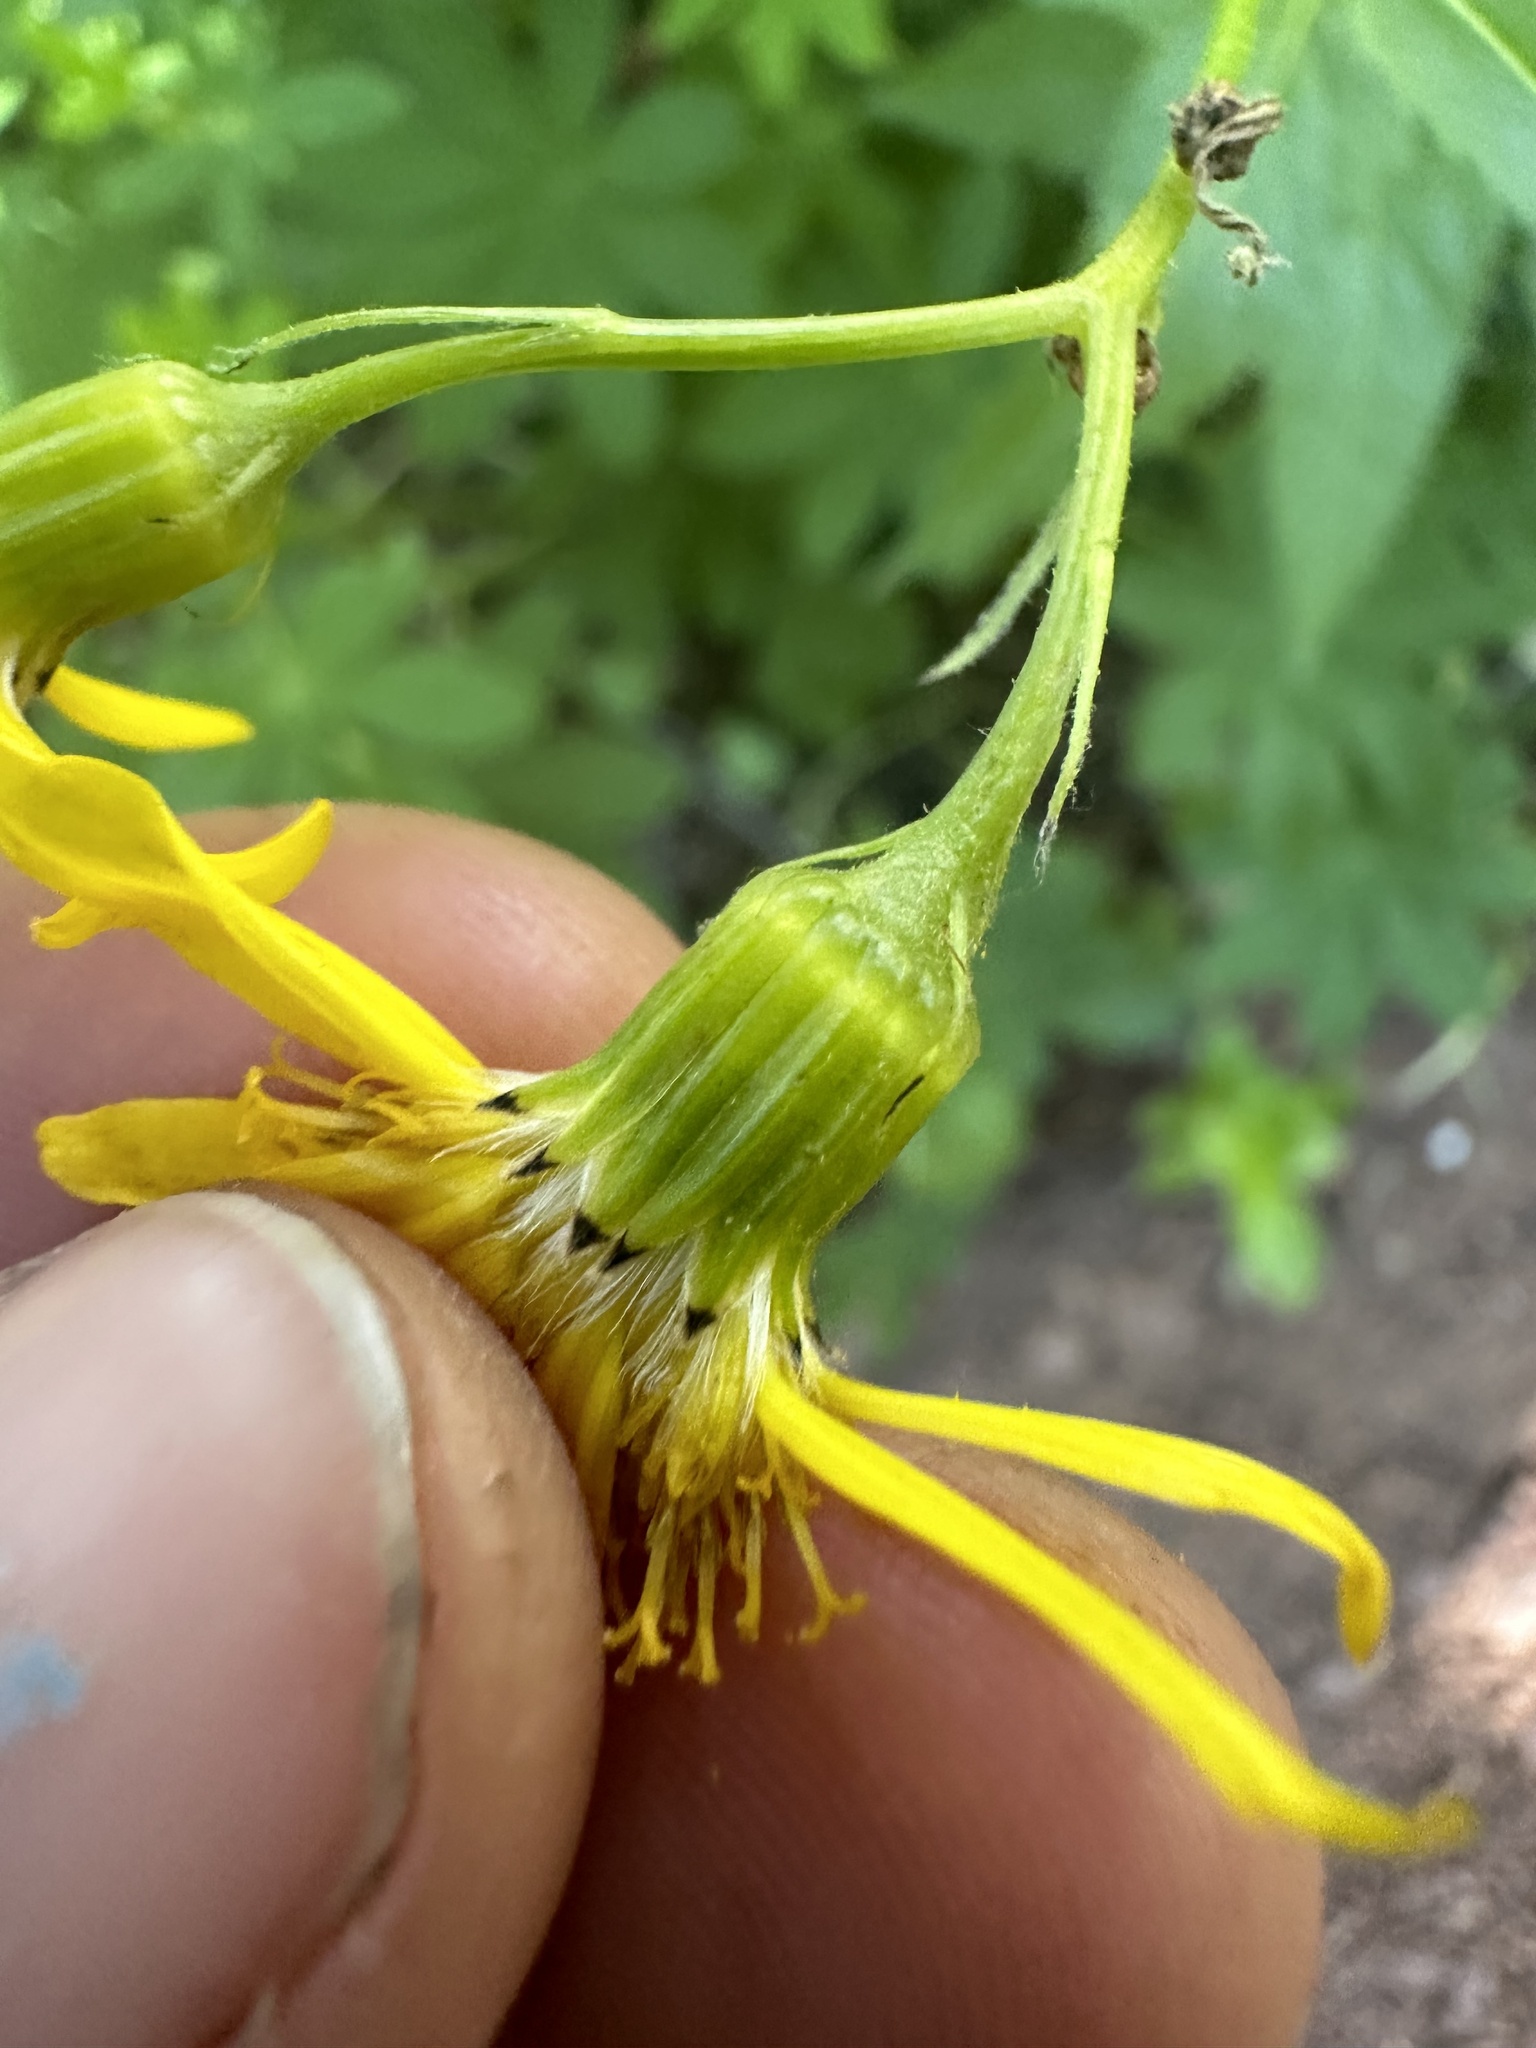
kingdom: Plantae
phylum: Tracheophyta
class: Magnoliopsida
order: Asterales
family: Asteraceae
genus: Senecio
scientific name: Senecio triangularis
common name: Arrowleaf butterweed
